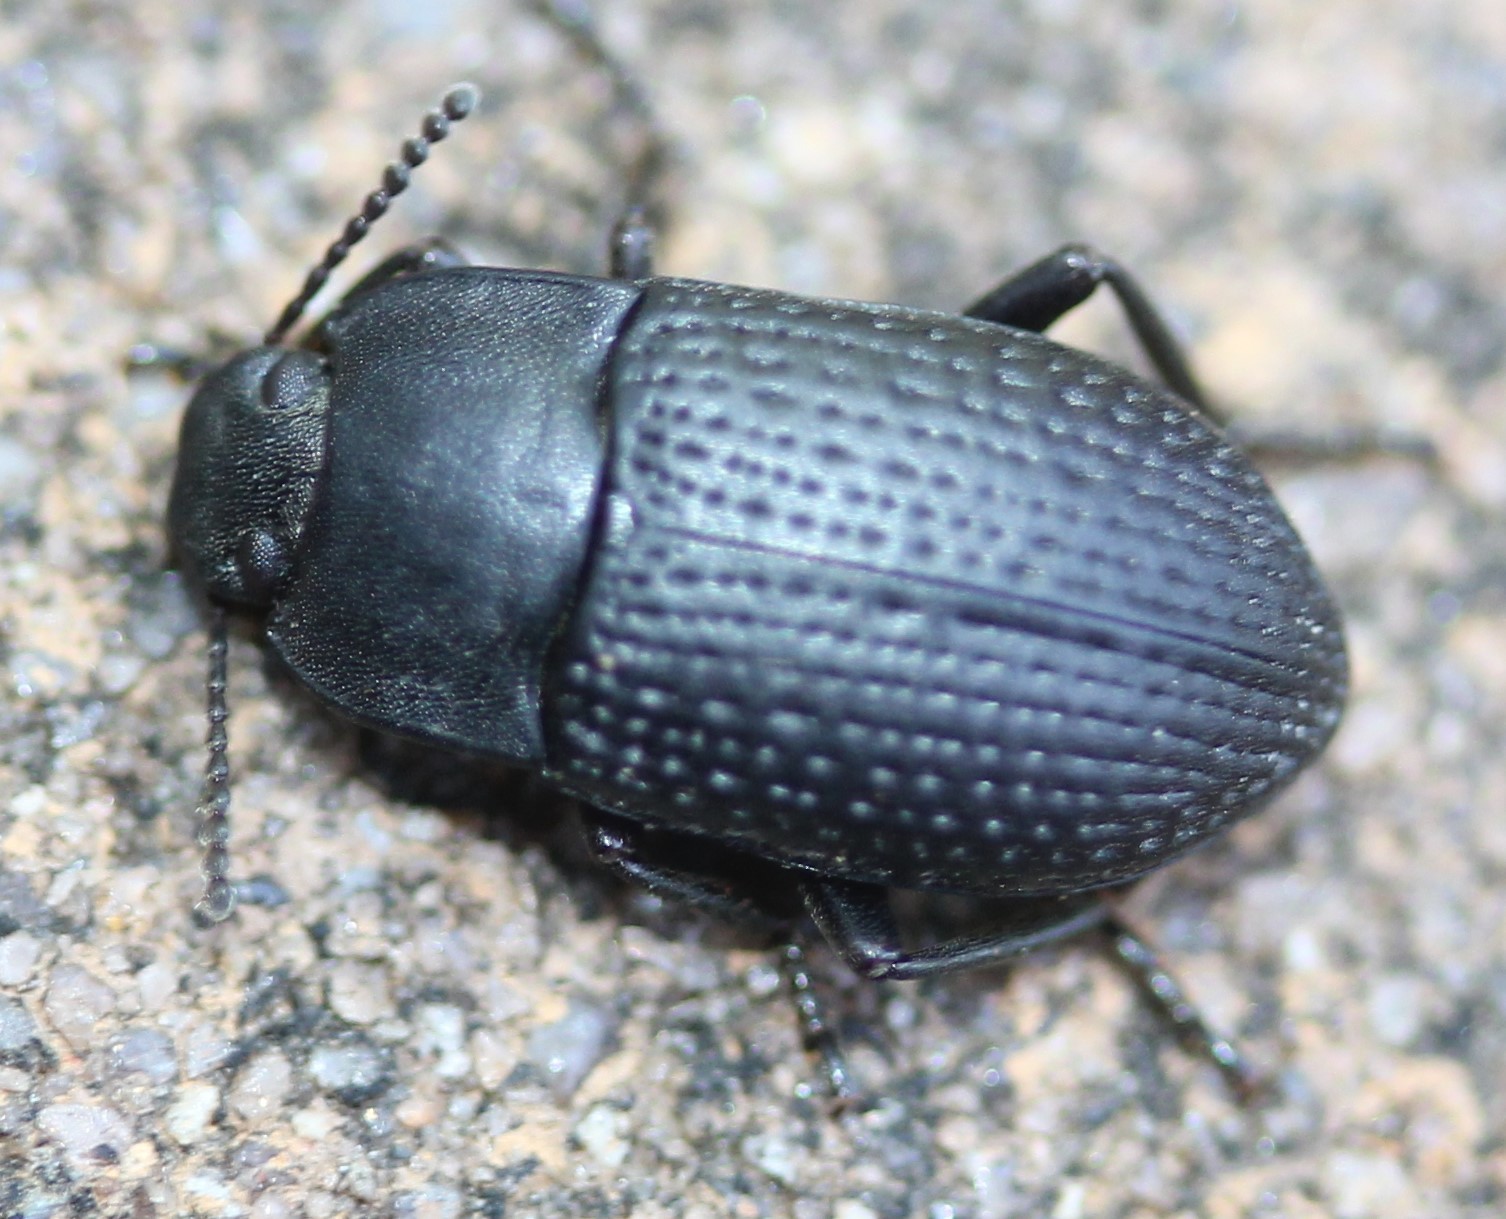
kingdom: Animalia
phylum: Arthropoda
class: Insecta
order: Coleoptera
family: Tenebrionidae
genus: Asiopus
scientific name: Asiopus
